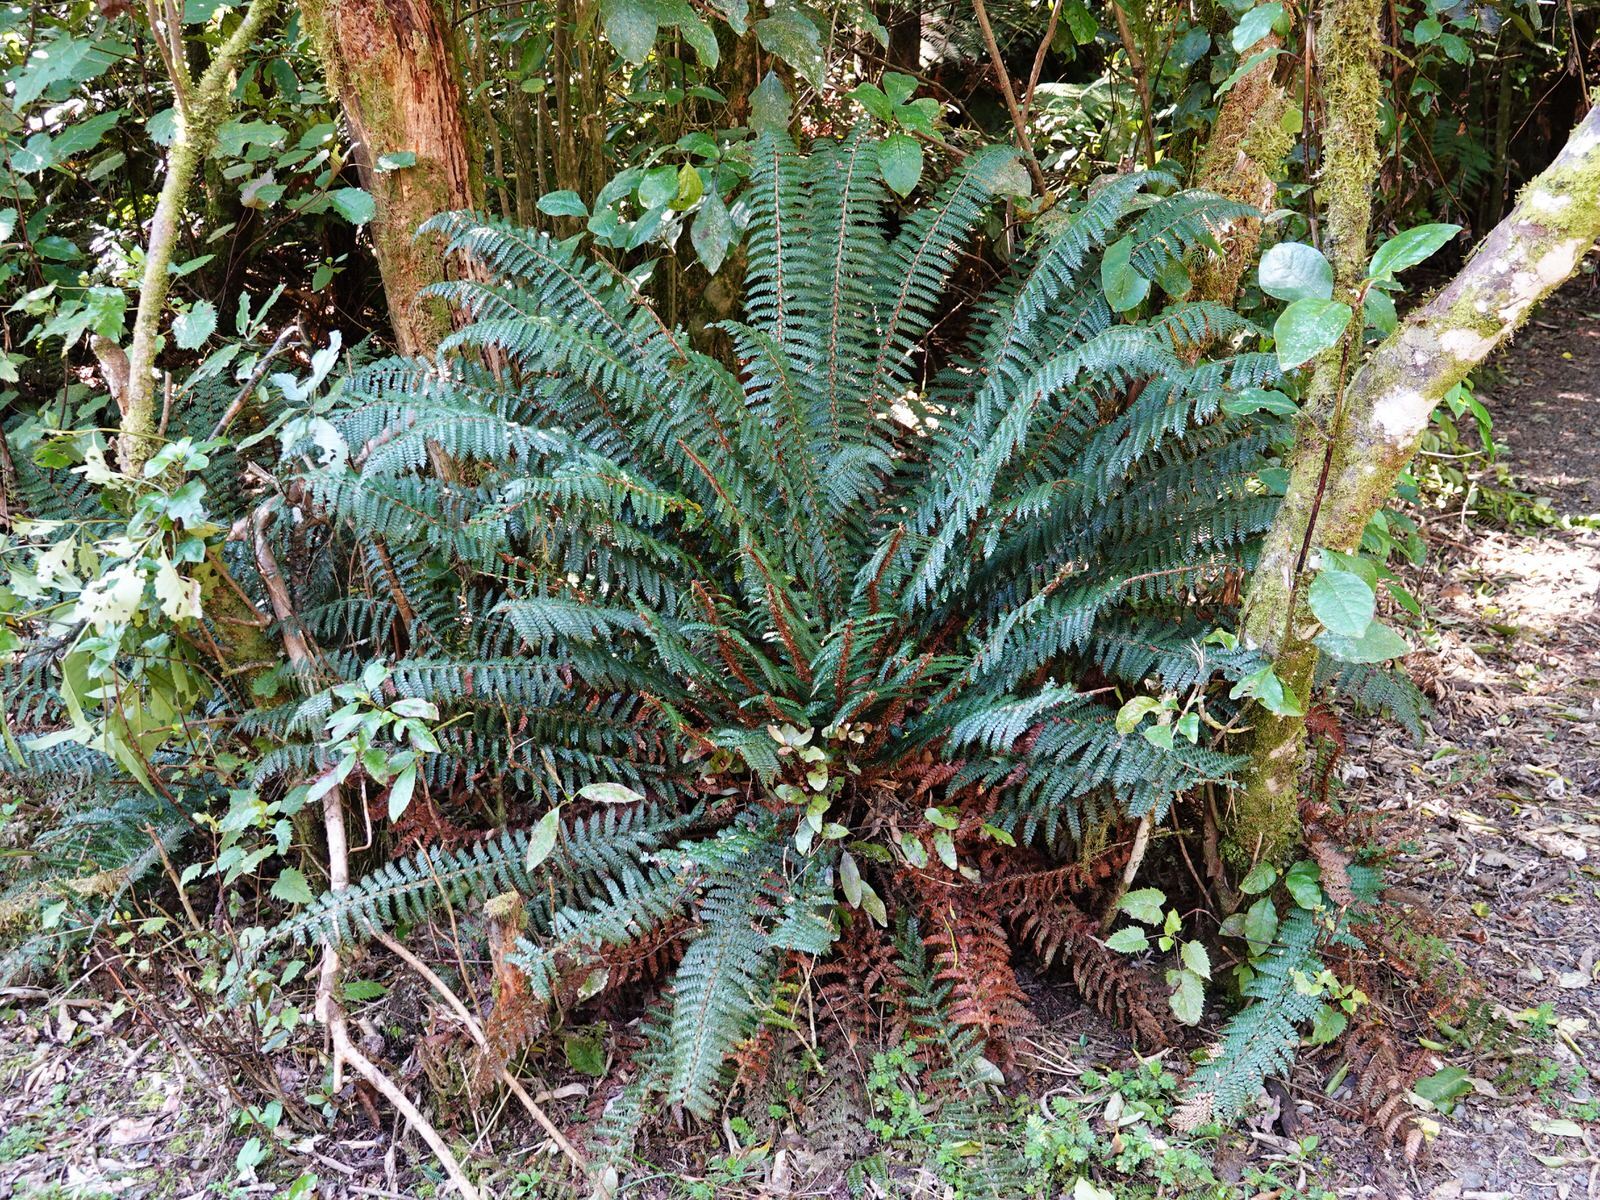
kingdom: Plantae
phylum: Tracheophyta
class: Polypodiopsida
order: Polypodiales
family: Dryopteridaceae
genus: Polystichum
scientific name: Polystichum vestitum
